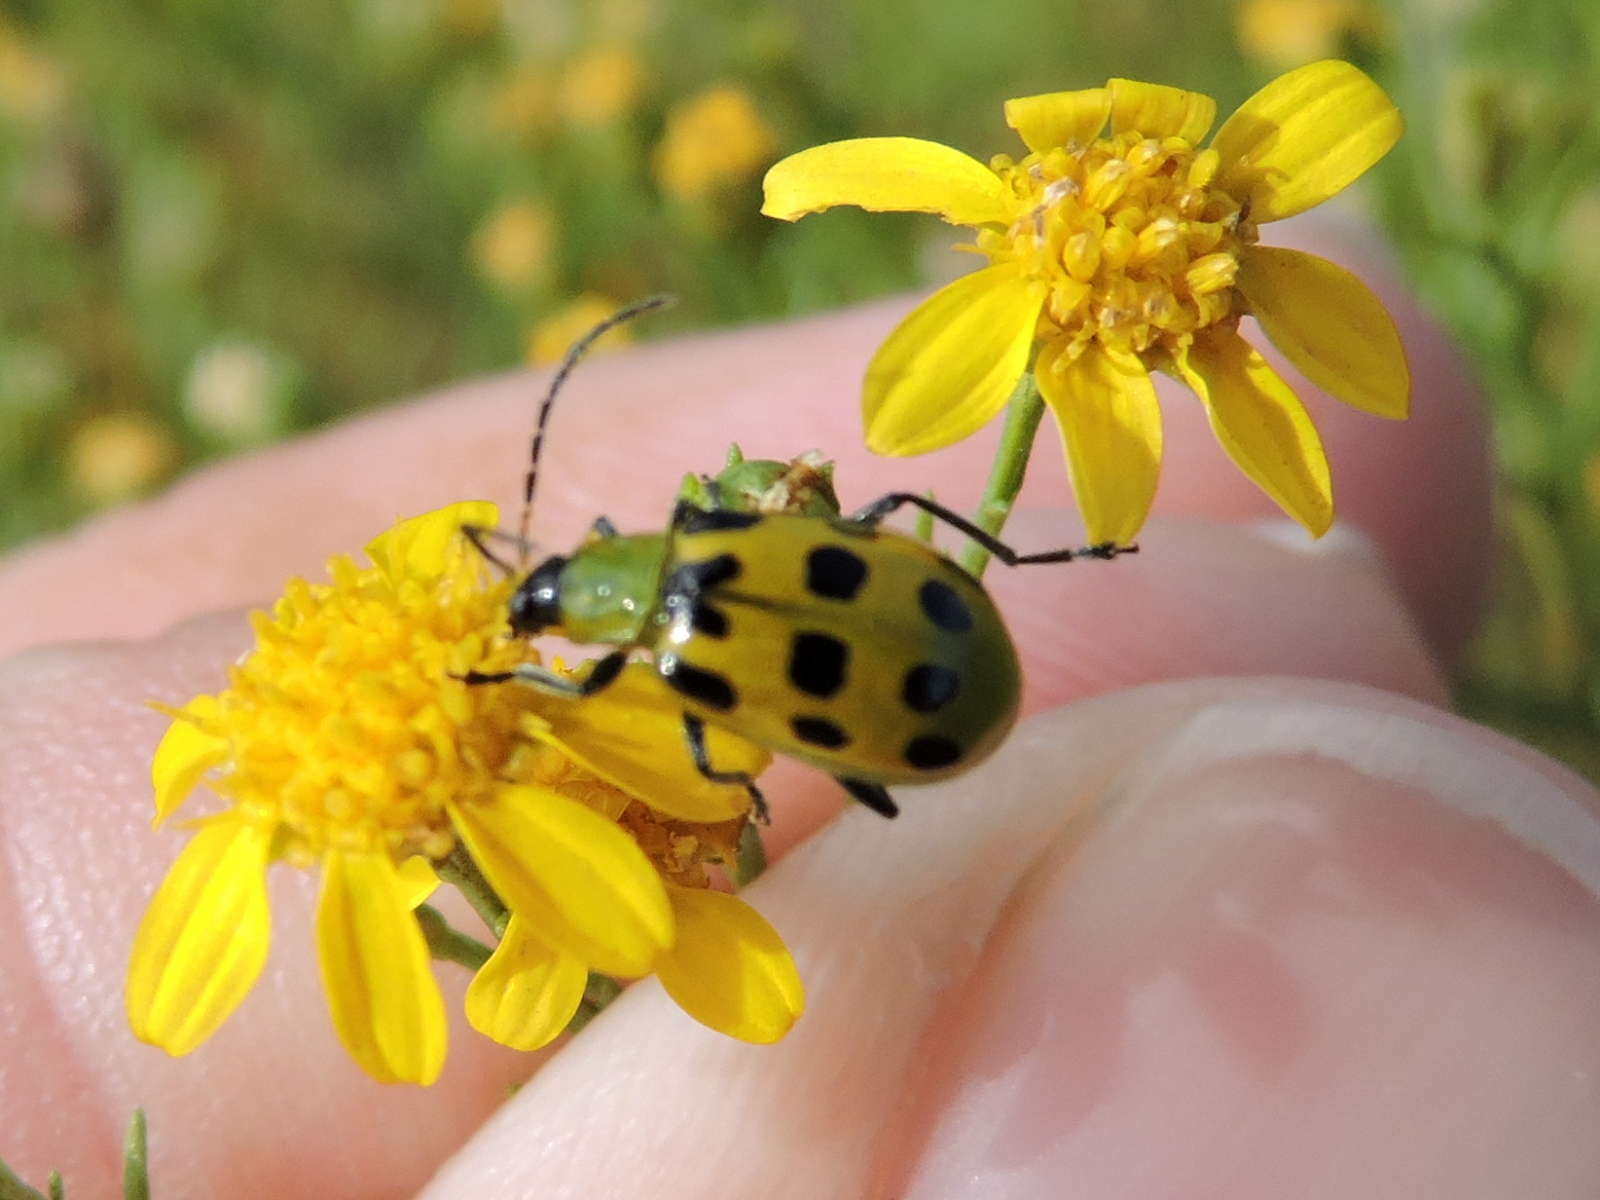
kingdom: Animalia
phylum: Arthropoda
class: Insecta
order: Coleoptera
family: Chrysomelidae
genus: Diabrotica
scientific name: Diabrotica undecimpunctata
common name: Spotted cucumber beetle
